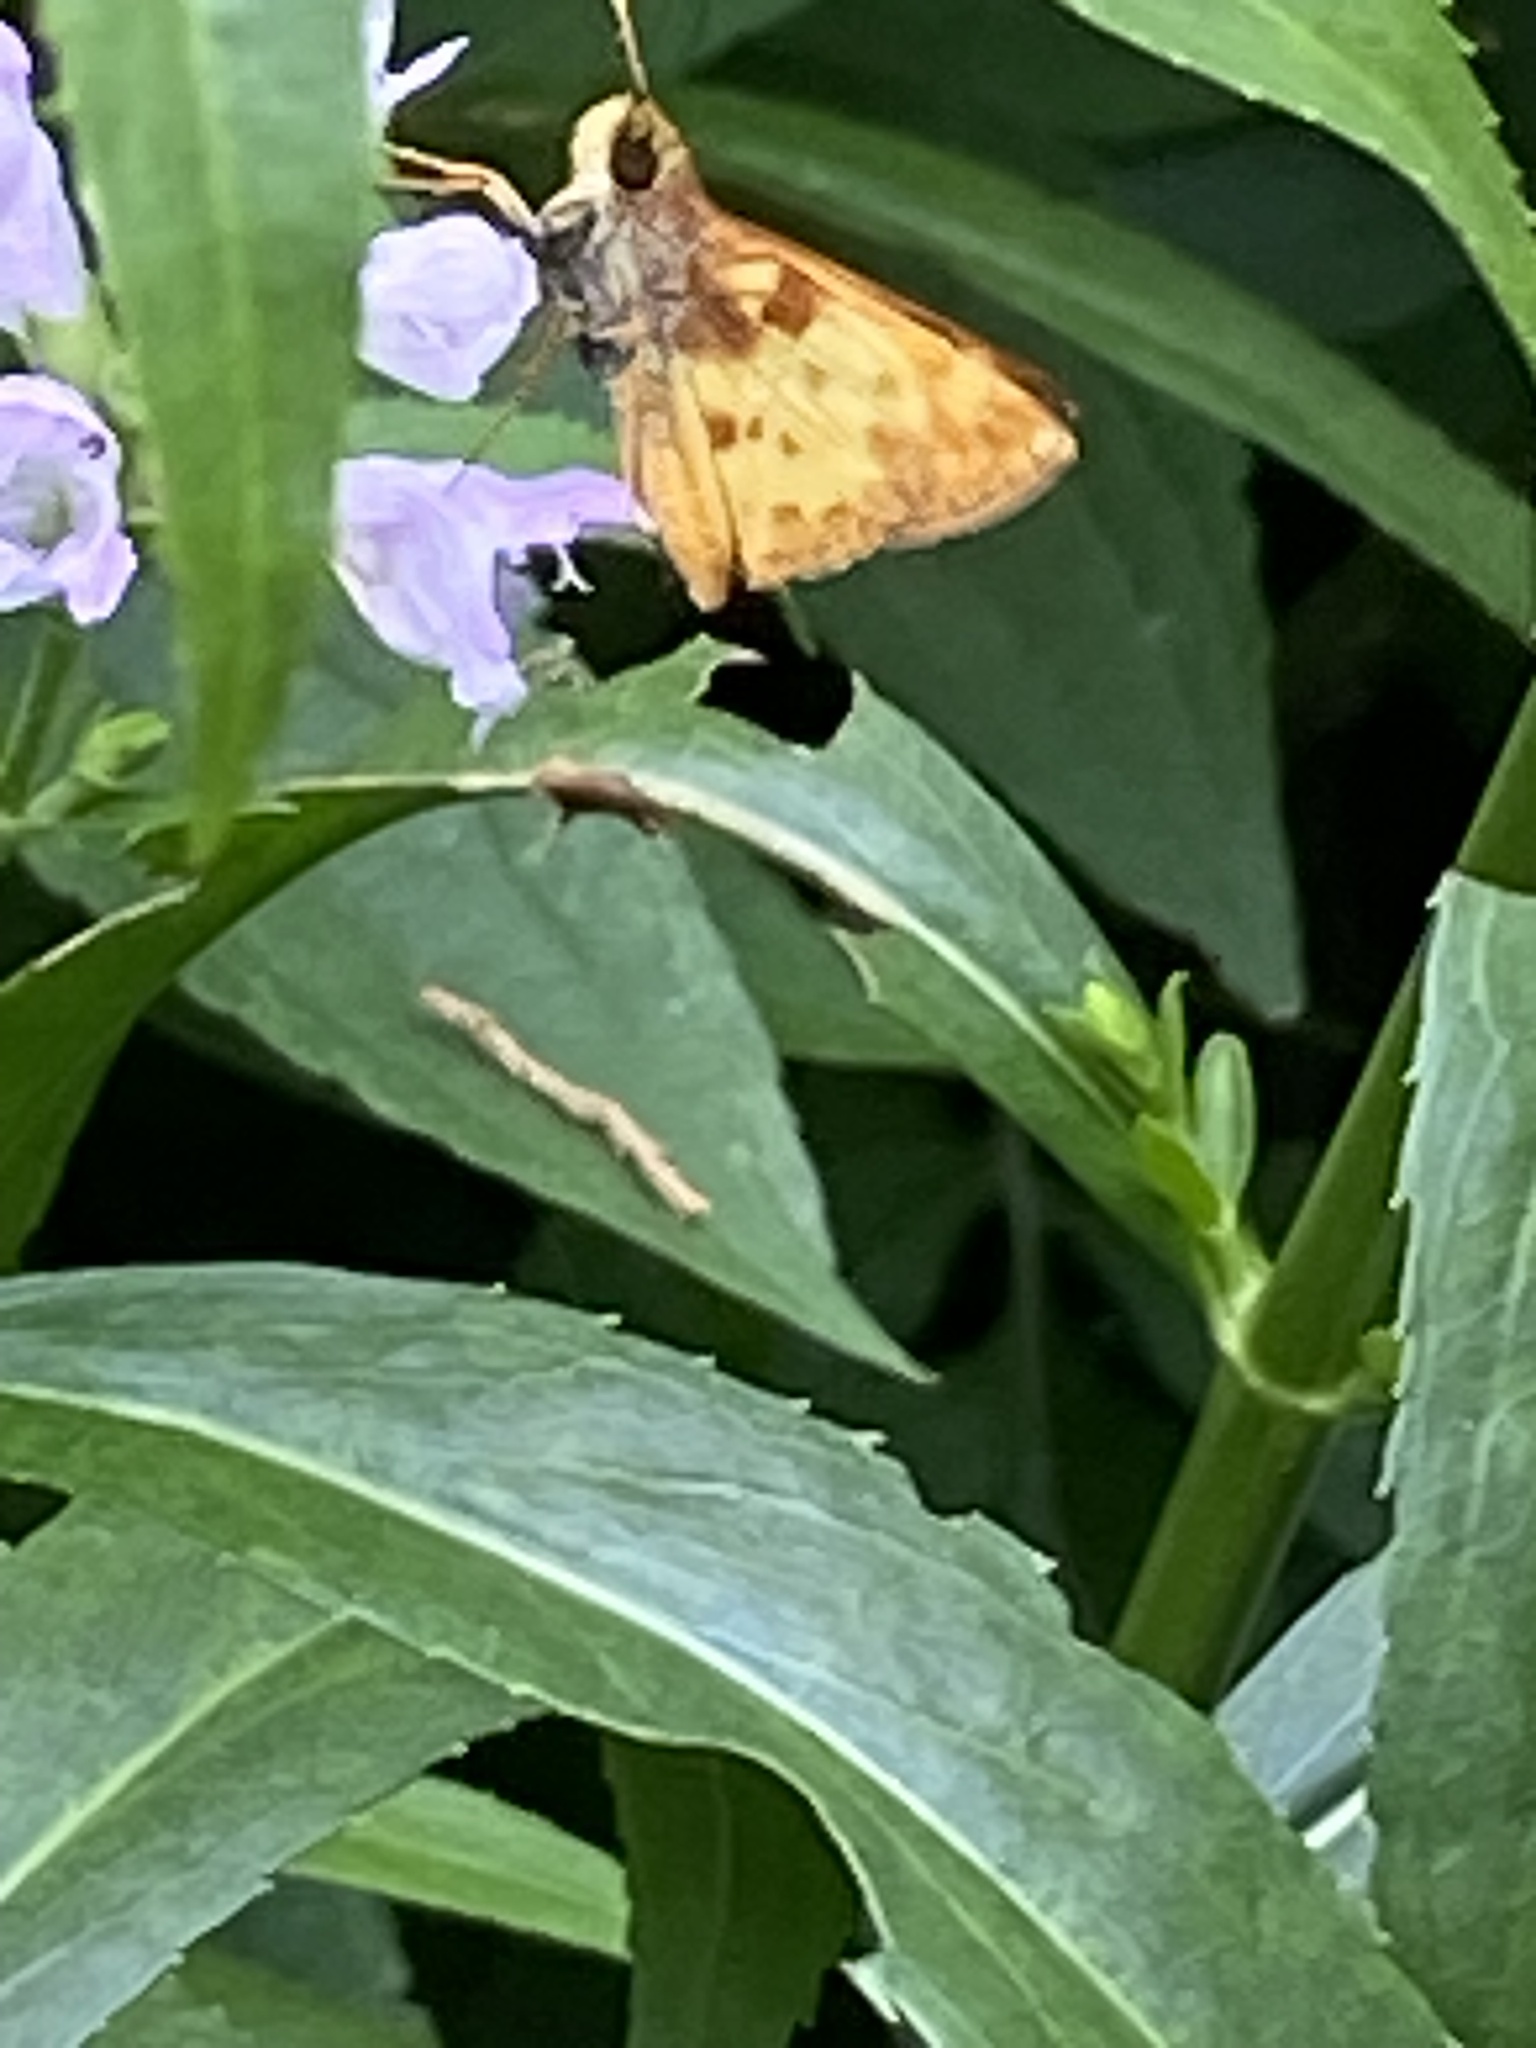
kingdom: Animalia
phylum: Arthropoda
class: Insecta
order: Lepidoptera
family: Hesperiidae
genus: Lon
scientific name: Lon zabulon
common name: Zabulon skipper
